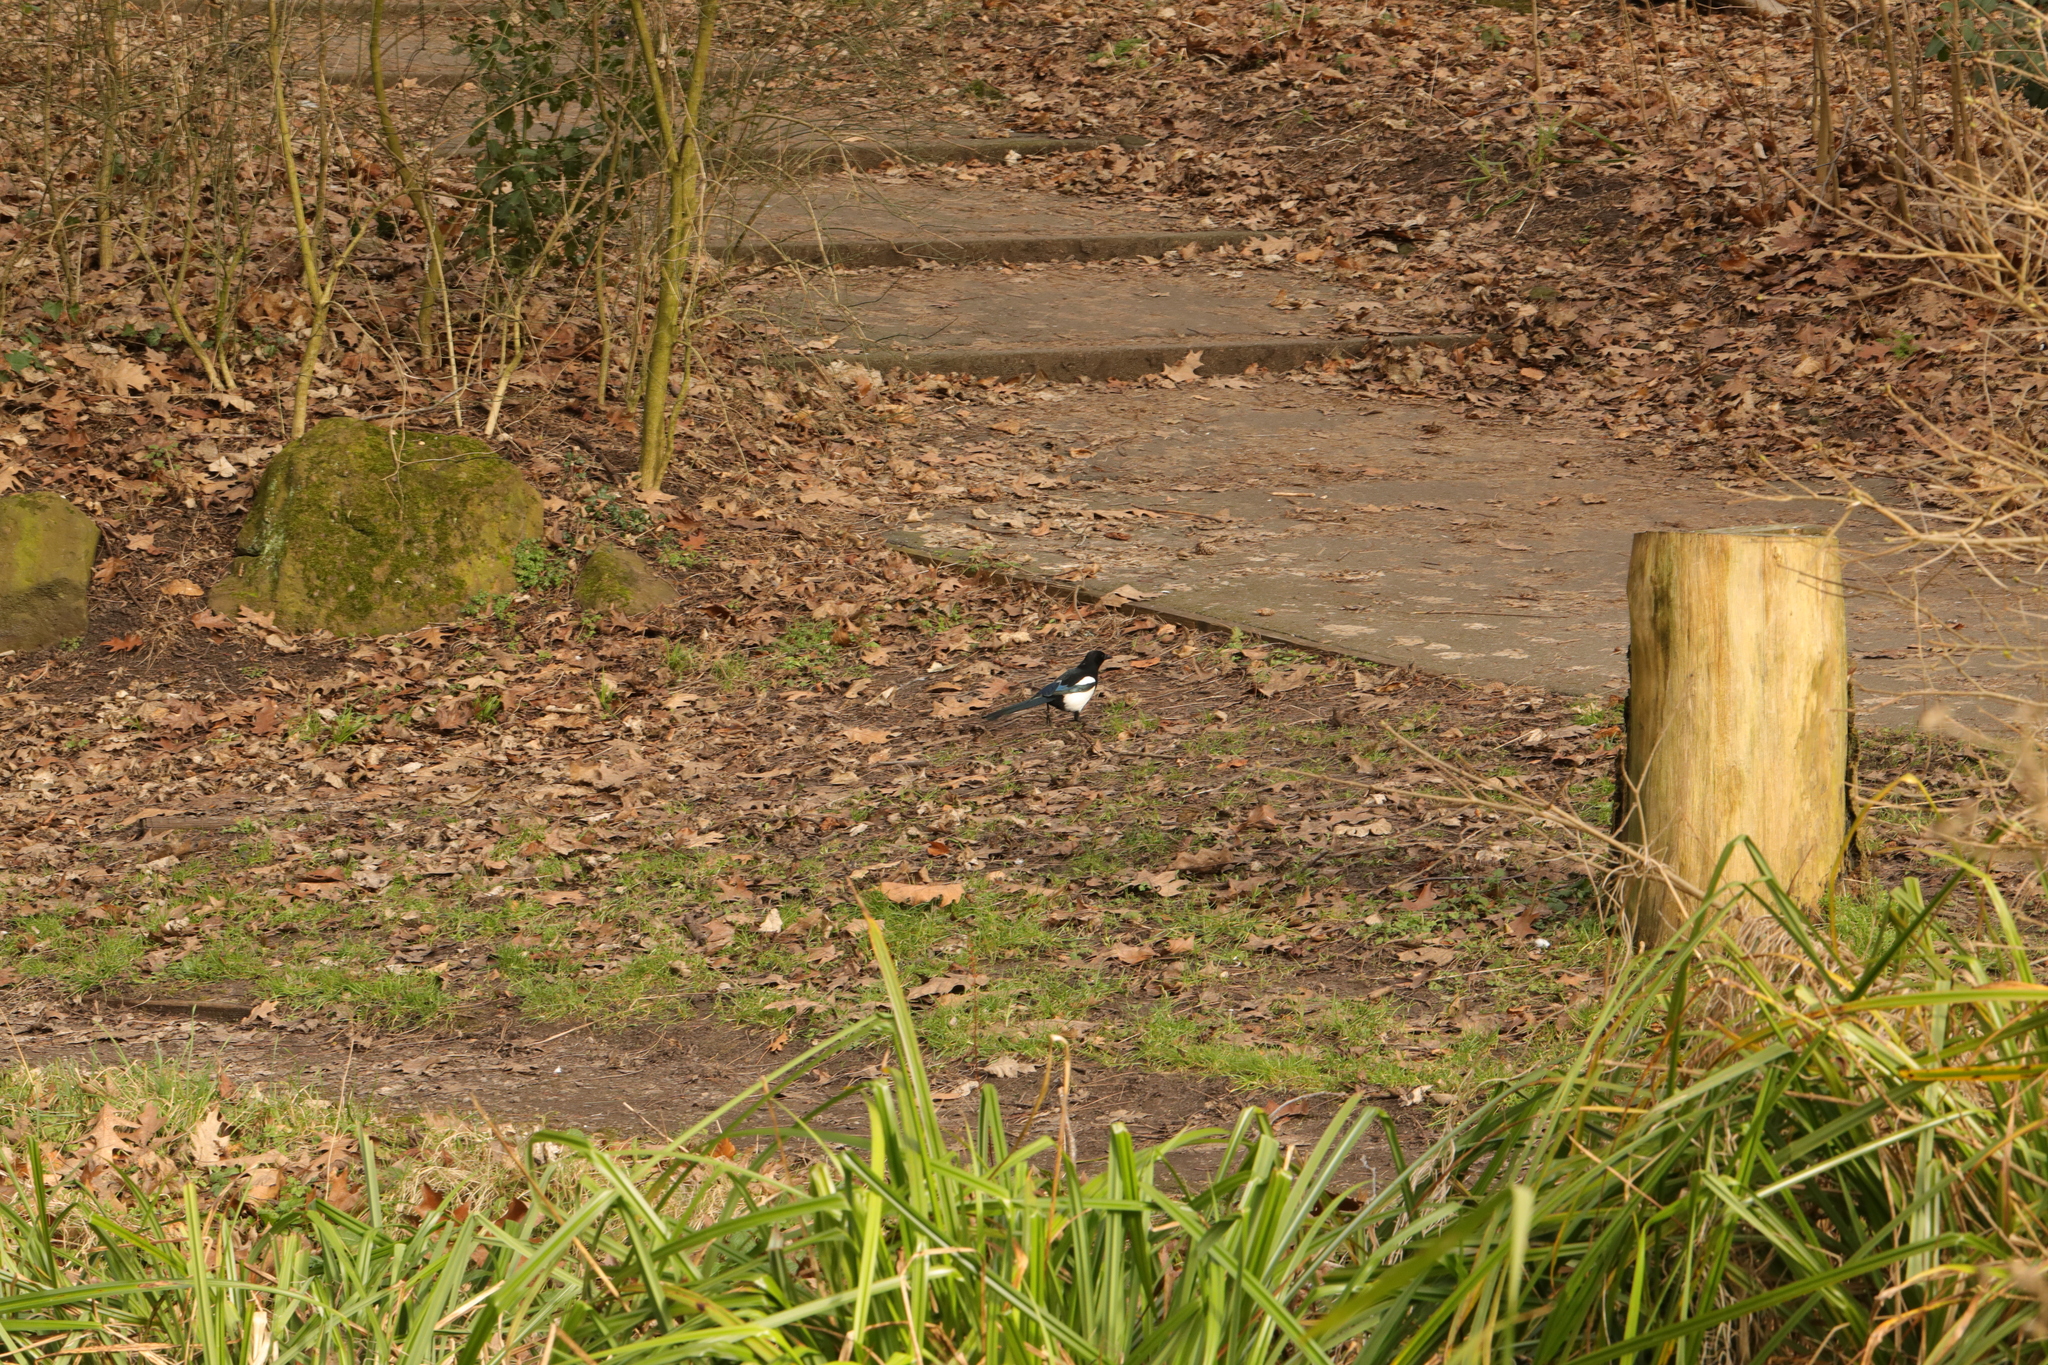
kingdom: Animalia
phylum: Chordata
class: Aves
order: Passeriformes
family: Corvidae
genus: Pica
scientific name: Pica pica
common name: Eurasian magpie
